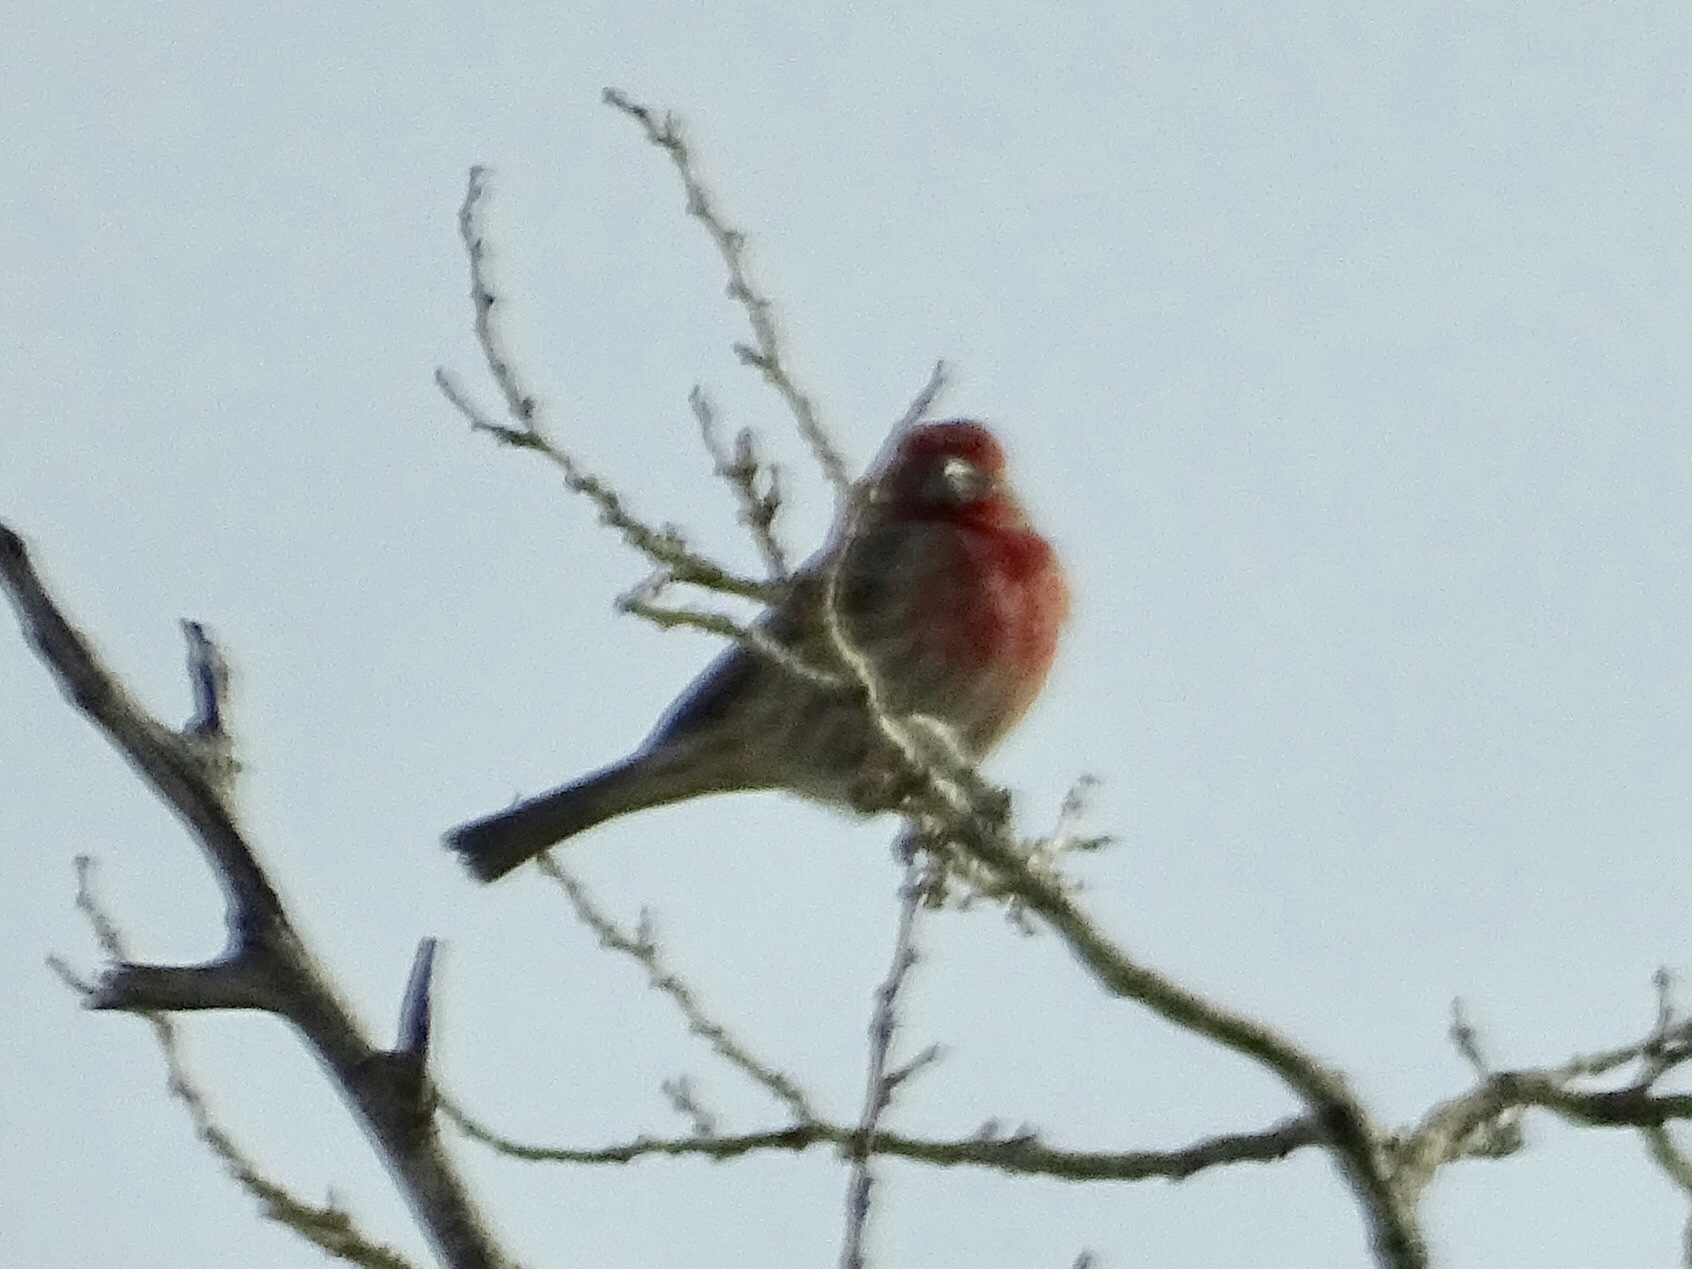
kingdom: Animalia
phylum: Chordata
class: Aves
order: Passeriformes
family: Fringillidae
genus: Haemorhous
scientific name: Haemorhous mexicanus
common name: House finch
